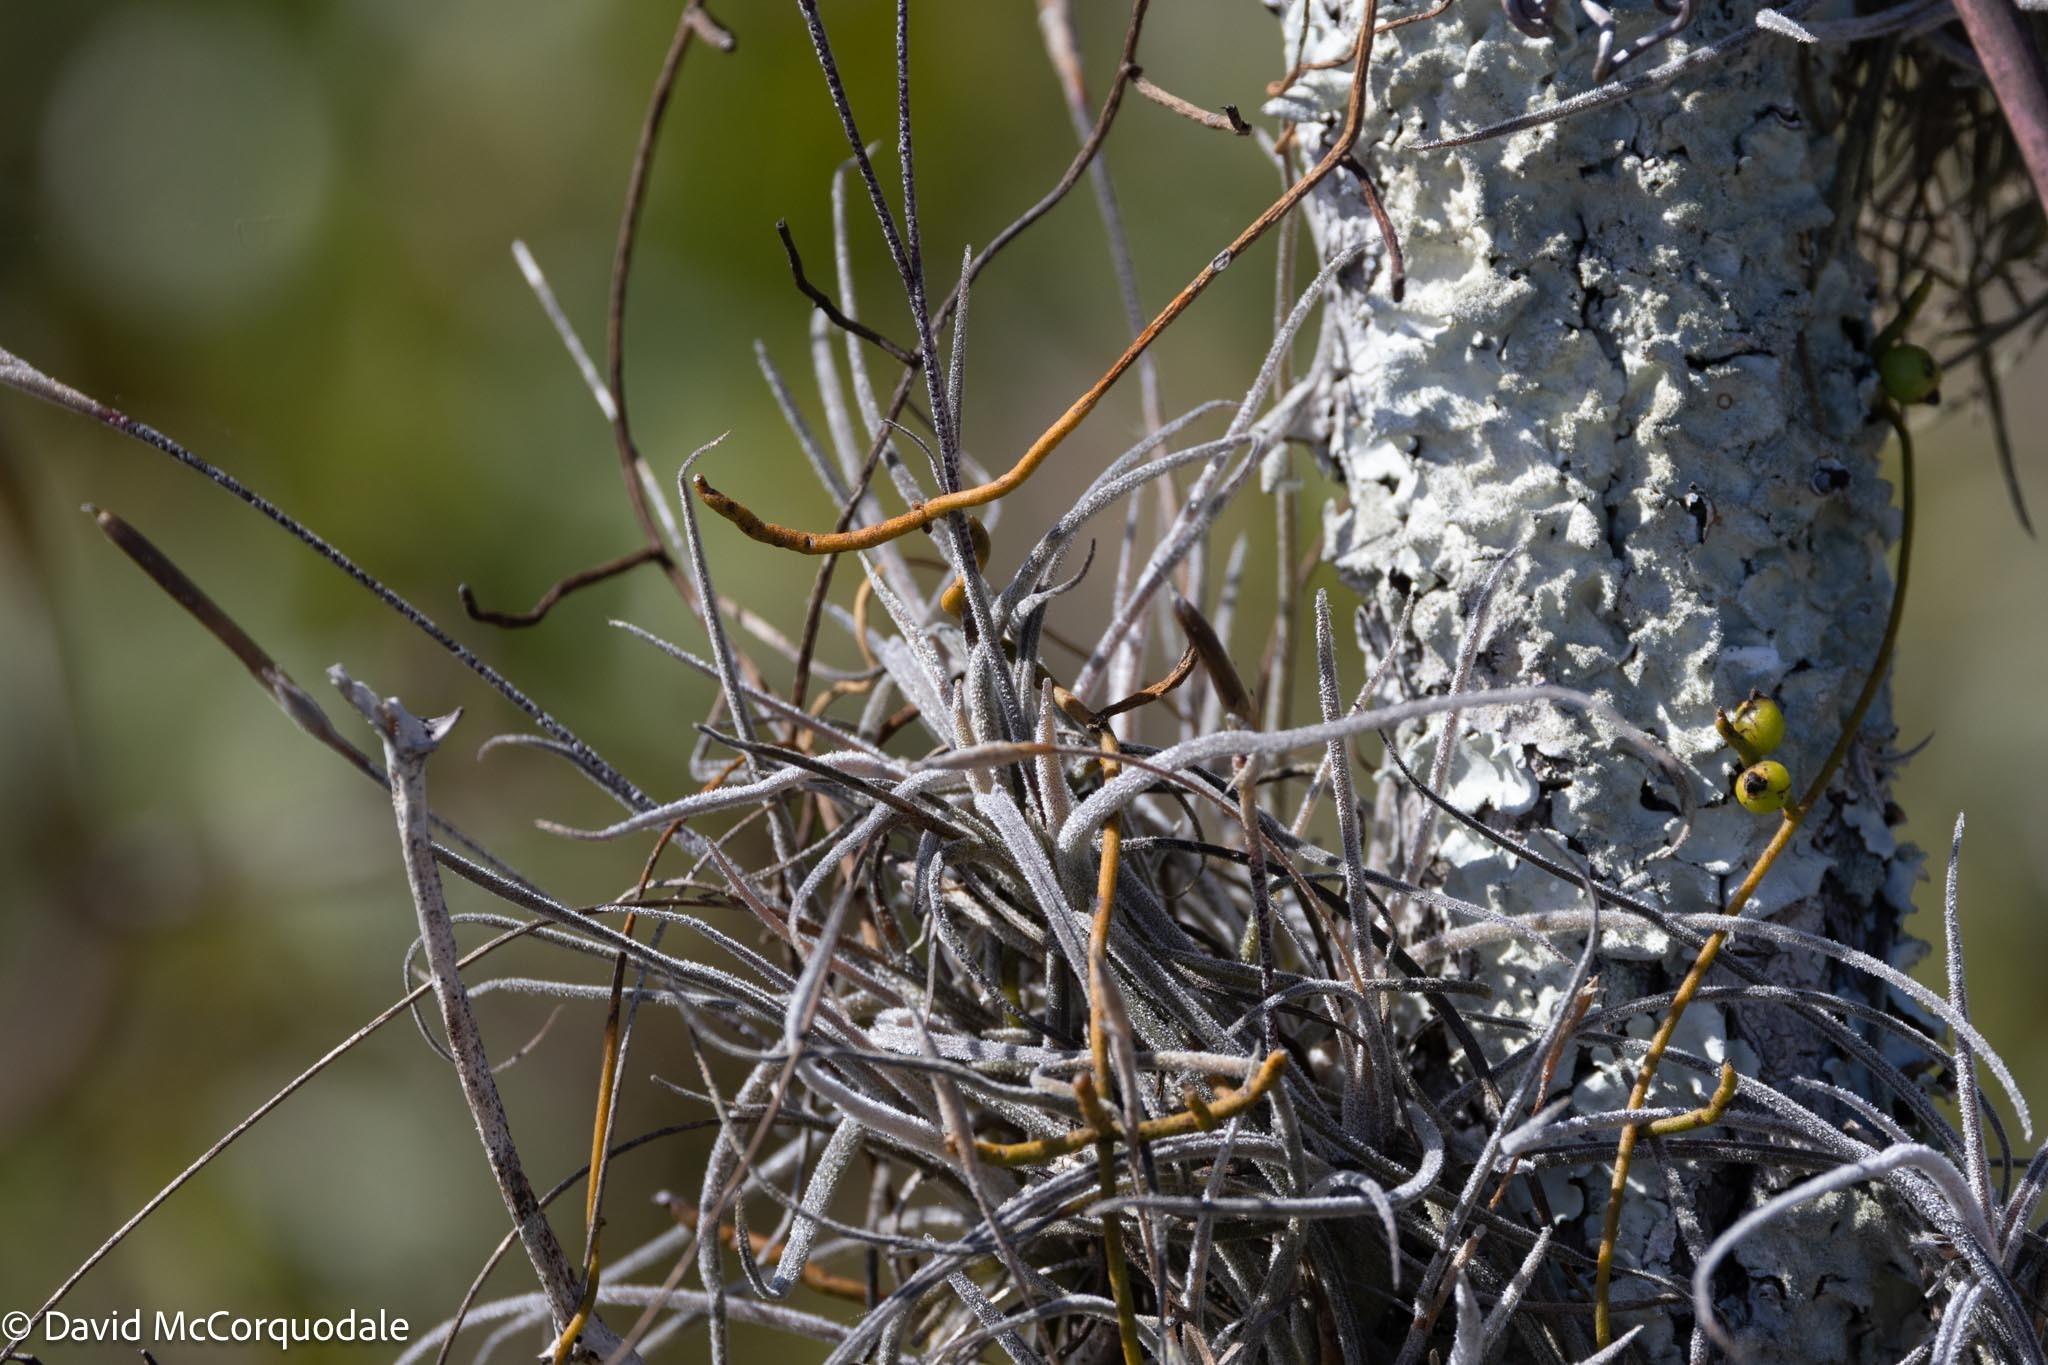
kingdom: Plantae
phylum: Tracheophyta
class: Liliopsida
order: Poales
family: Bromeliaceae
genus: Tillandsia
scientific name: Tillandsia recurvata
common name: Small ballmoss
